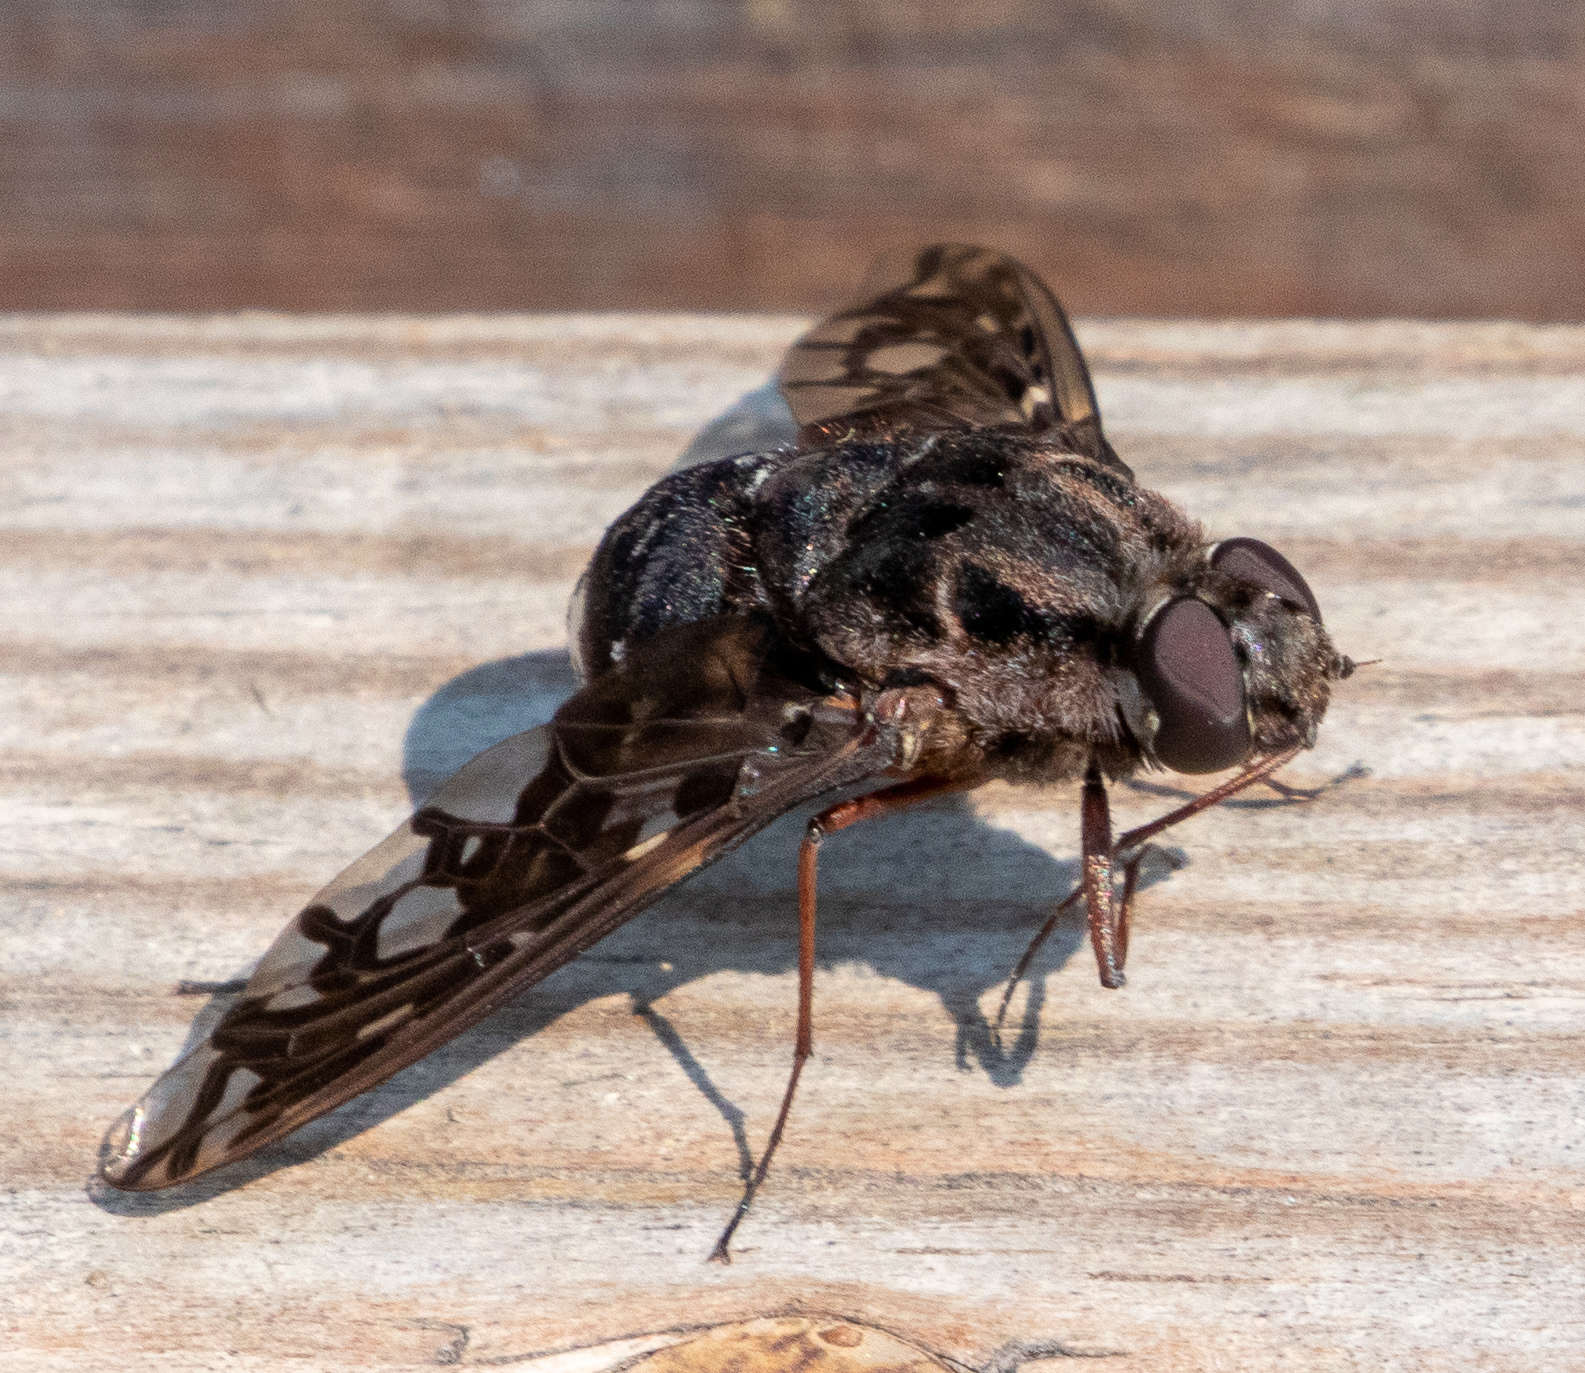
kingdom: Animalia
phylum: Arthropoda
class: Insecta
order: Diptera
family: Bombyliidae
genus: Xenox
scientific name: Xenox tigrinus
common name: Tiger bee fly
